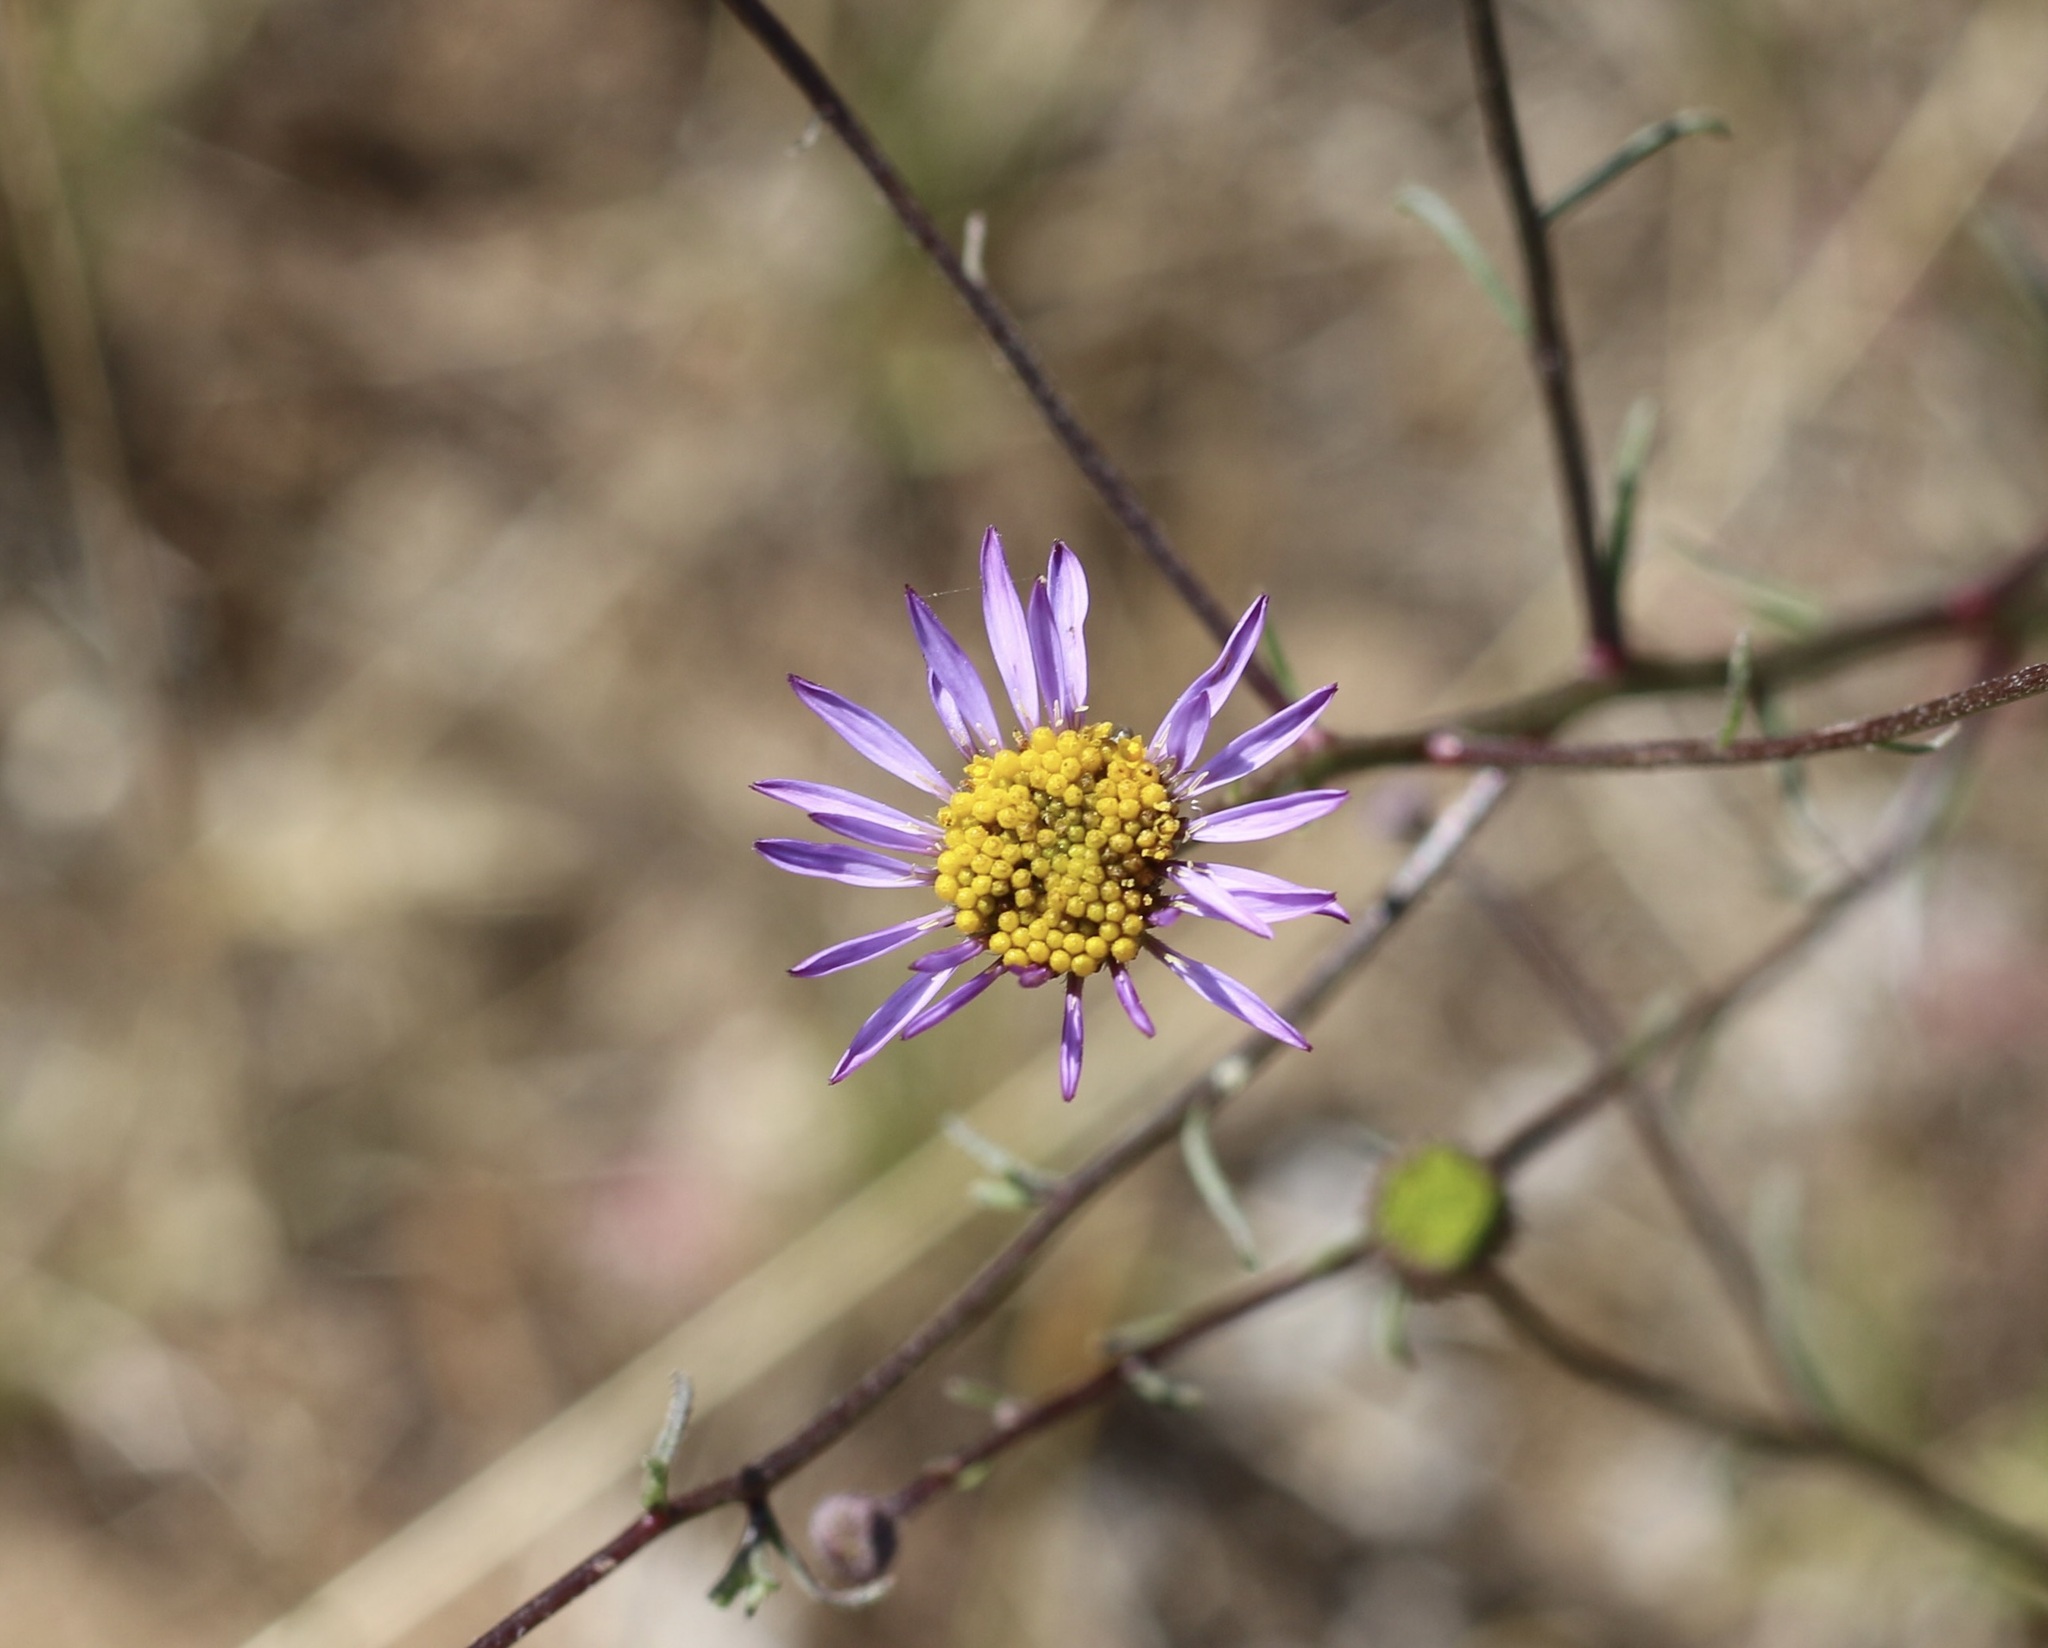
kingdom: Plantae
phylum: Tracheophyta
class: Magnoliopsida
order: Asterales
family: Asteraceae
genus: Erigeron
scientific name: Erigeron foliosus
